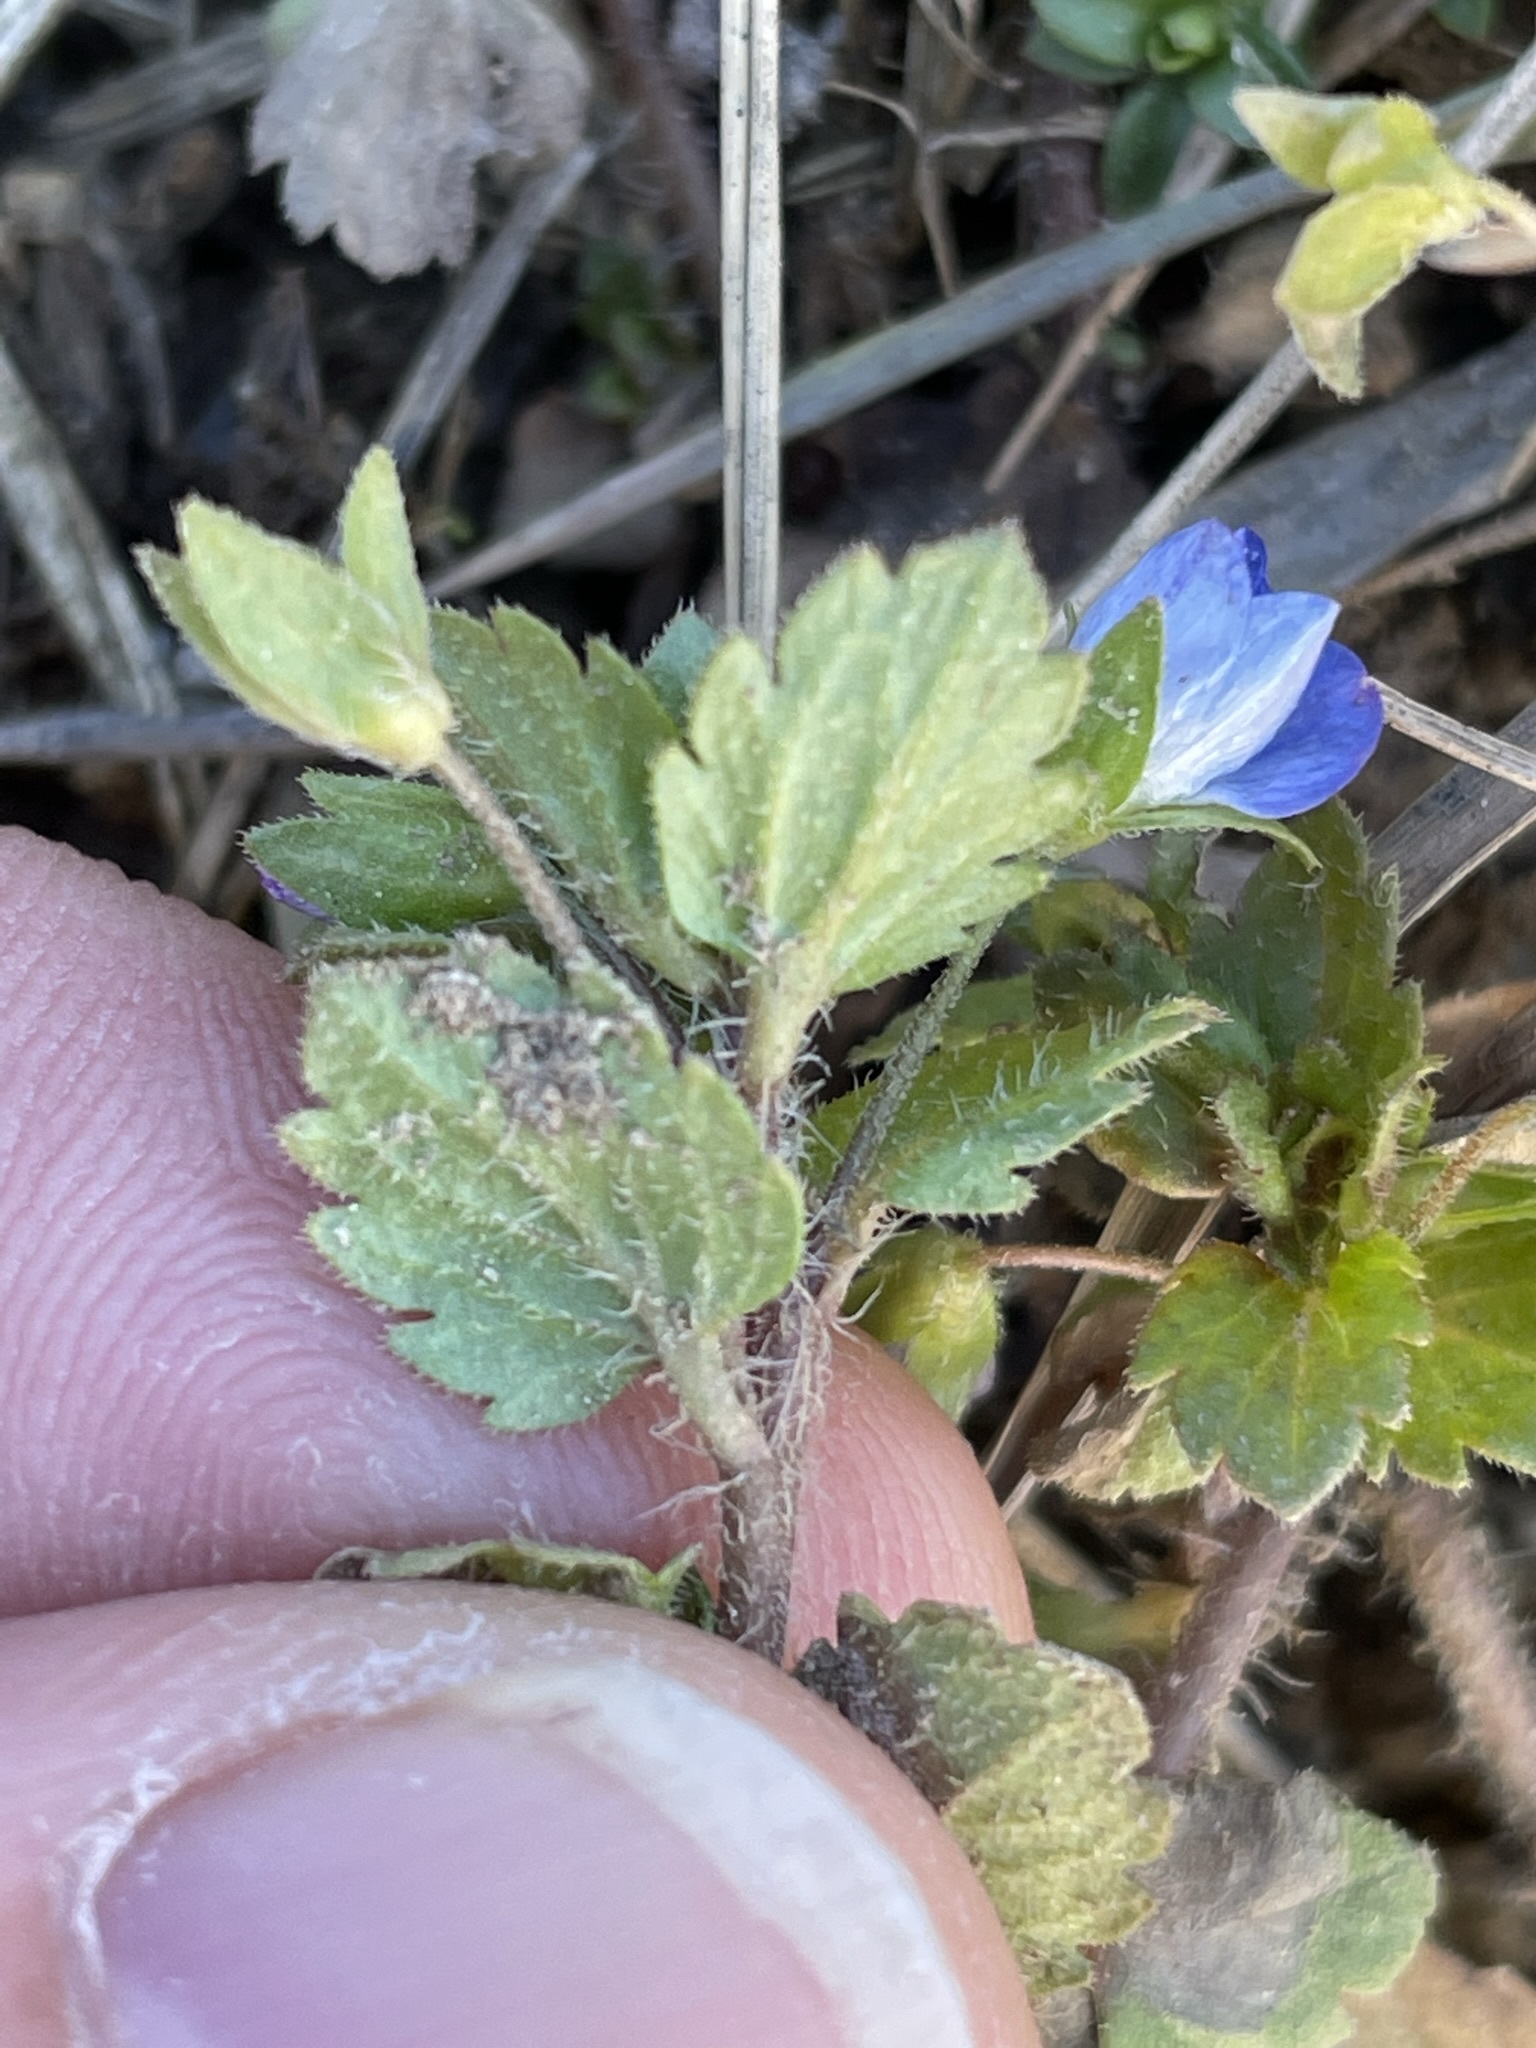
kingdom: Plantae
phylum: Tracheophyta
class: Magnoliopsida
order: Lamiales
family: Plantaginaceae
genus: Veronica
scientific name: Veronica persica
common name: Common field-speedwell
